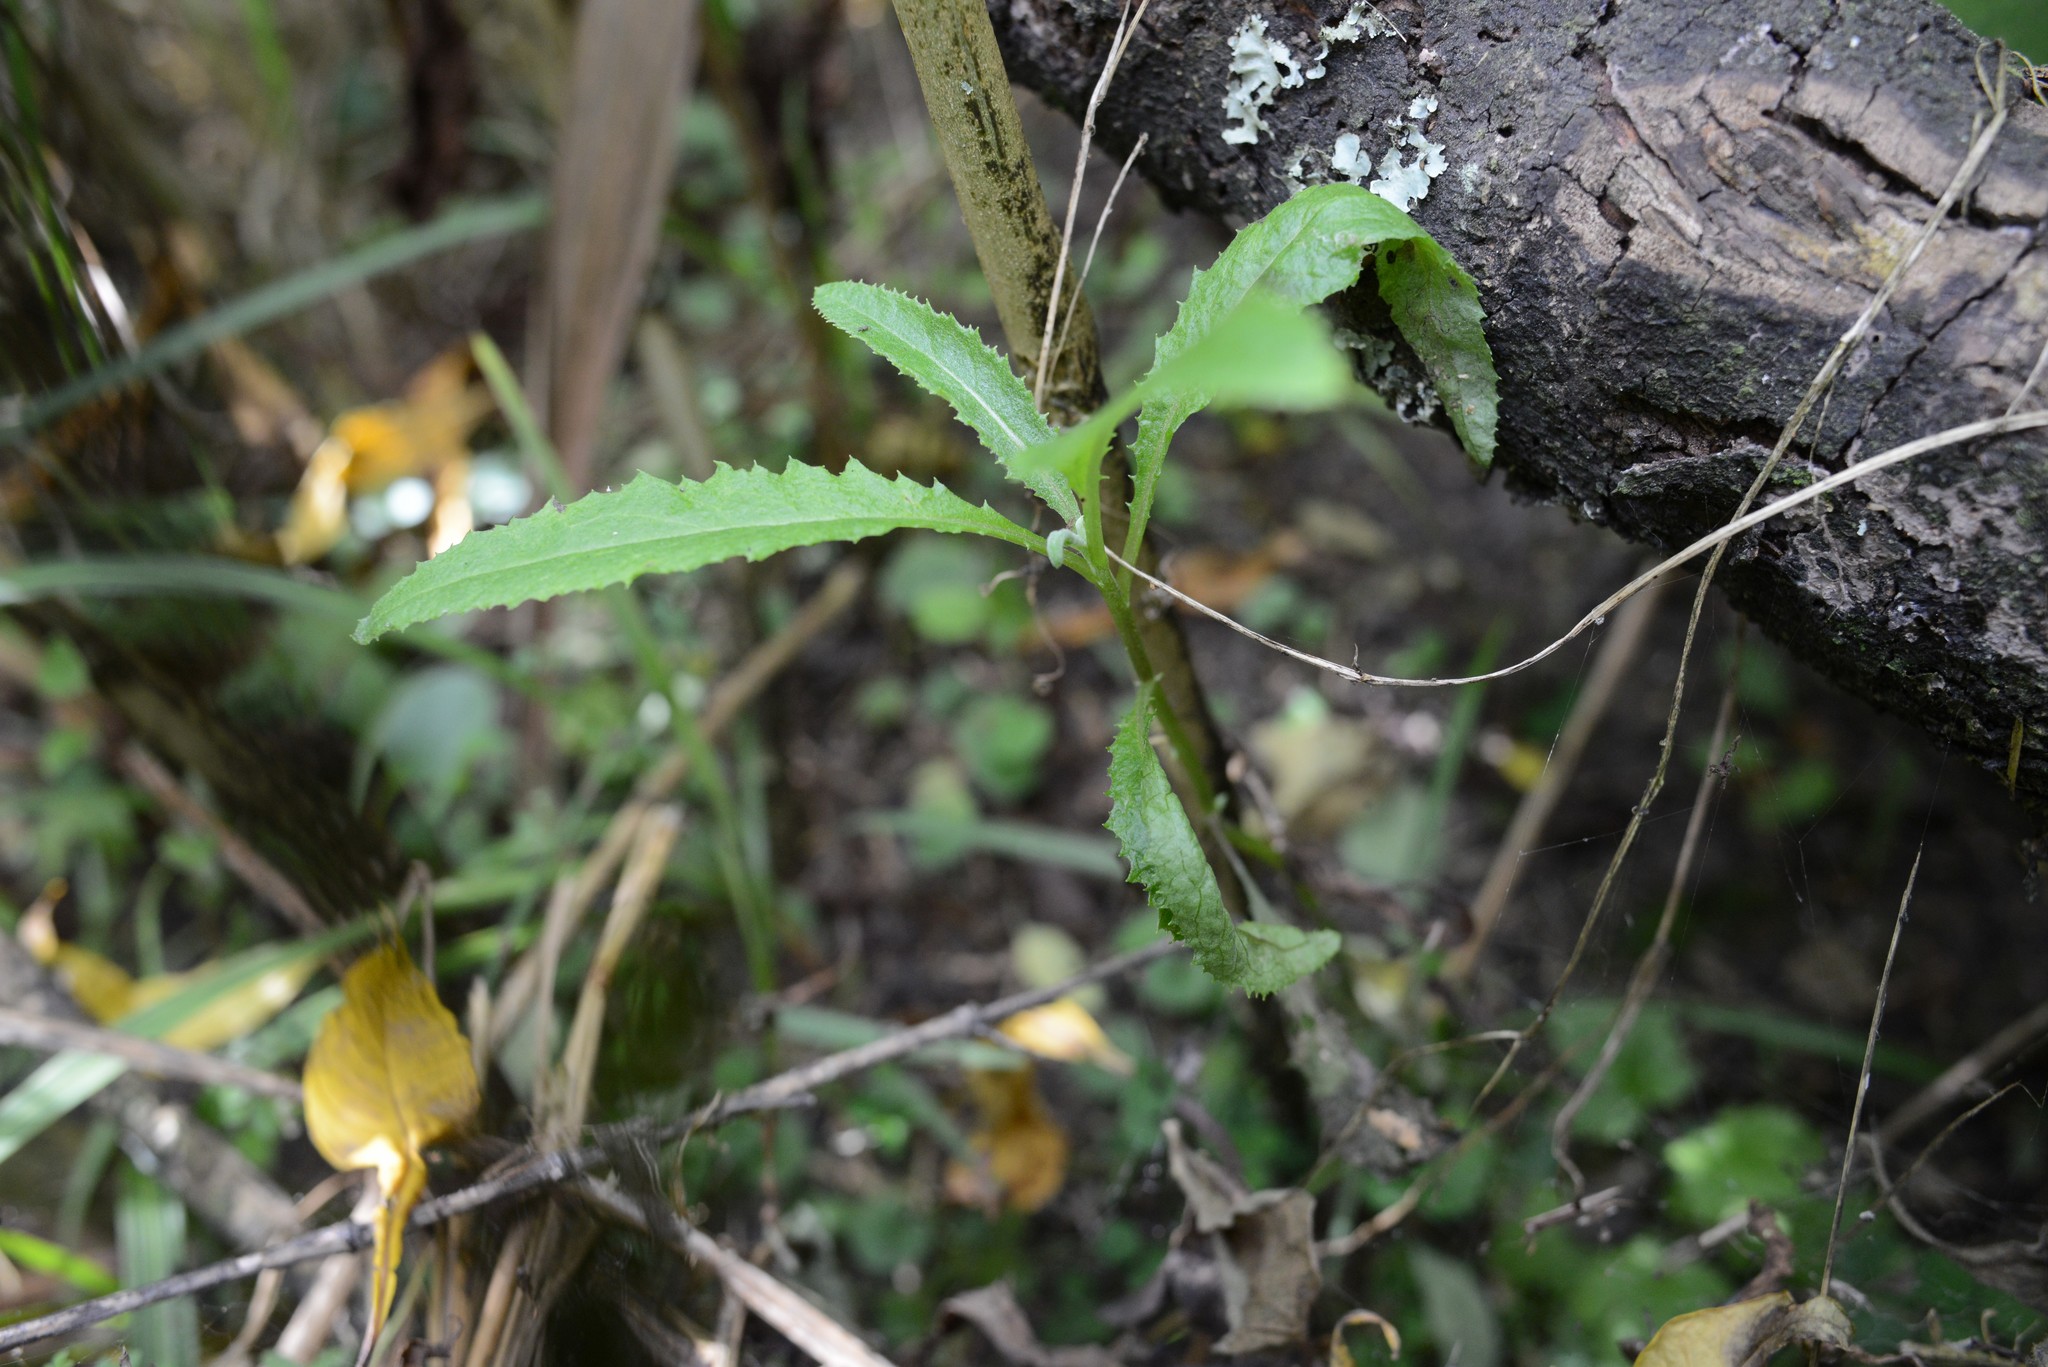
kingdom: Plantae
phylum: Tracheophyta
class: Magnoliopsida
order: Asterales
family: Asteraceae
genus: Senecio
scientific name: Senecio minimus
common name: Toothed fireweed
